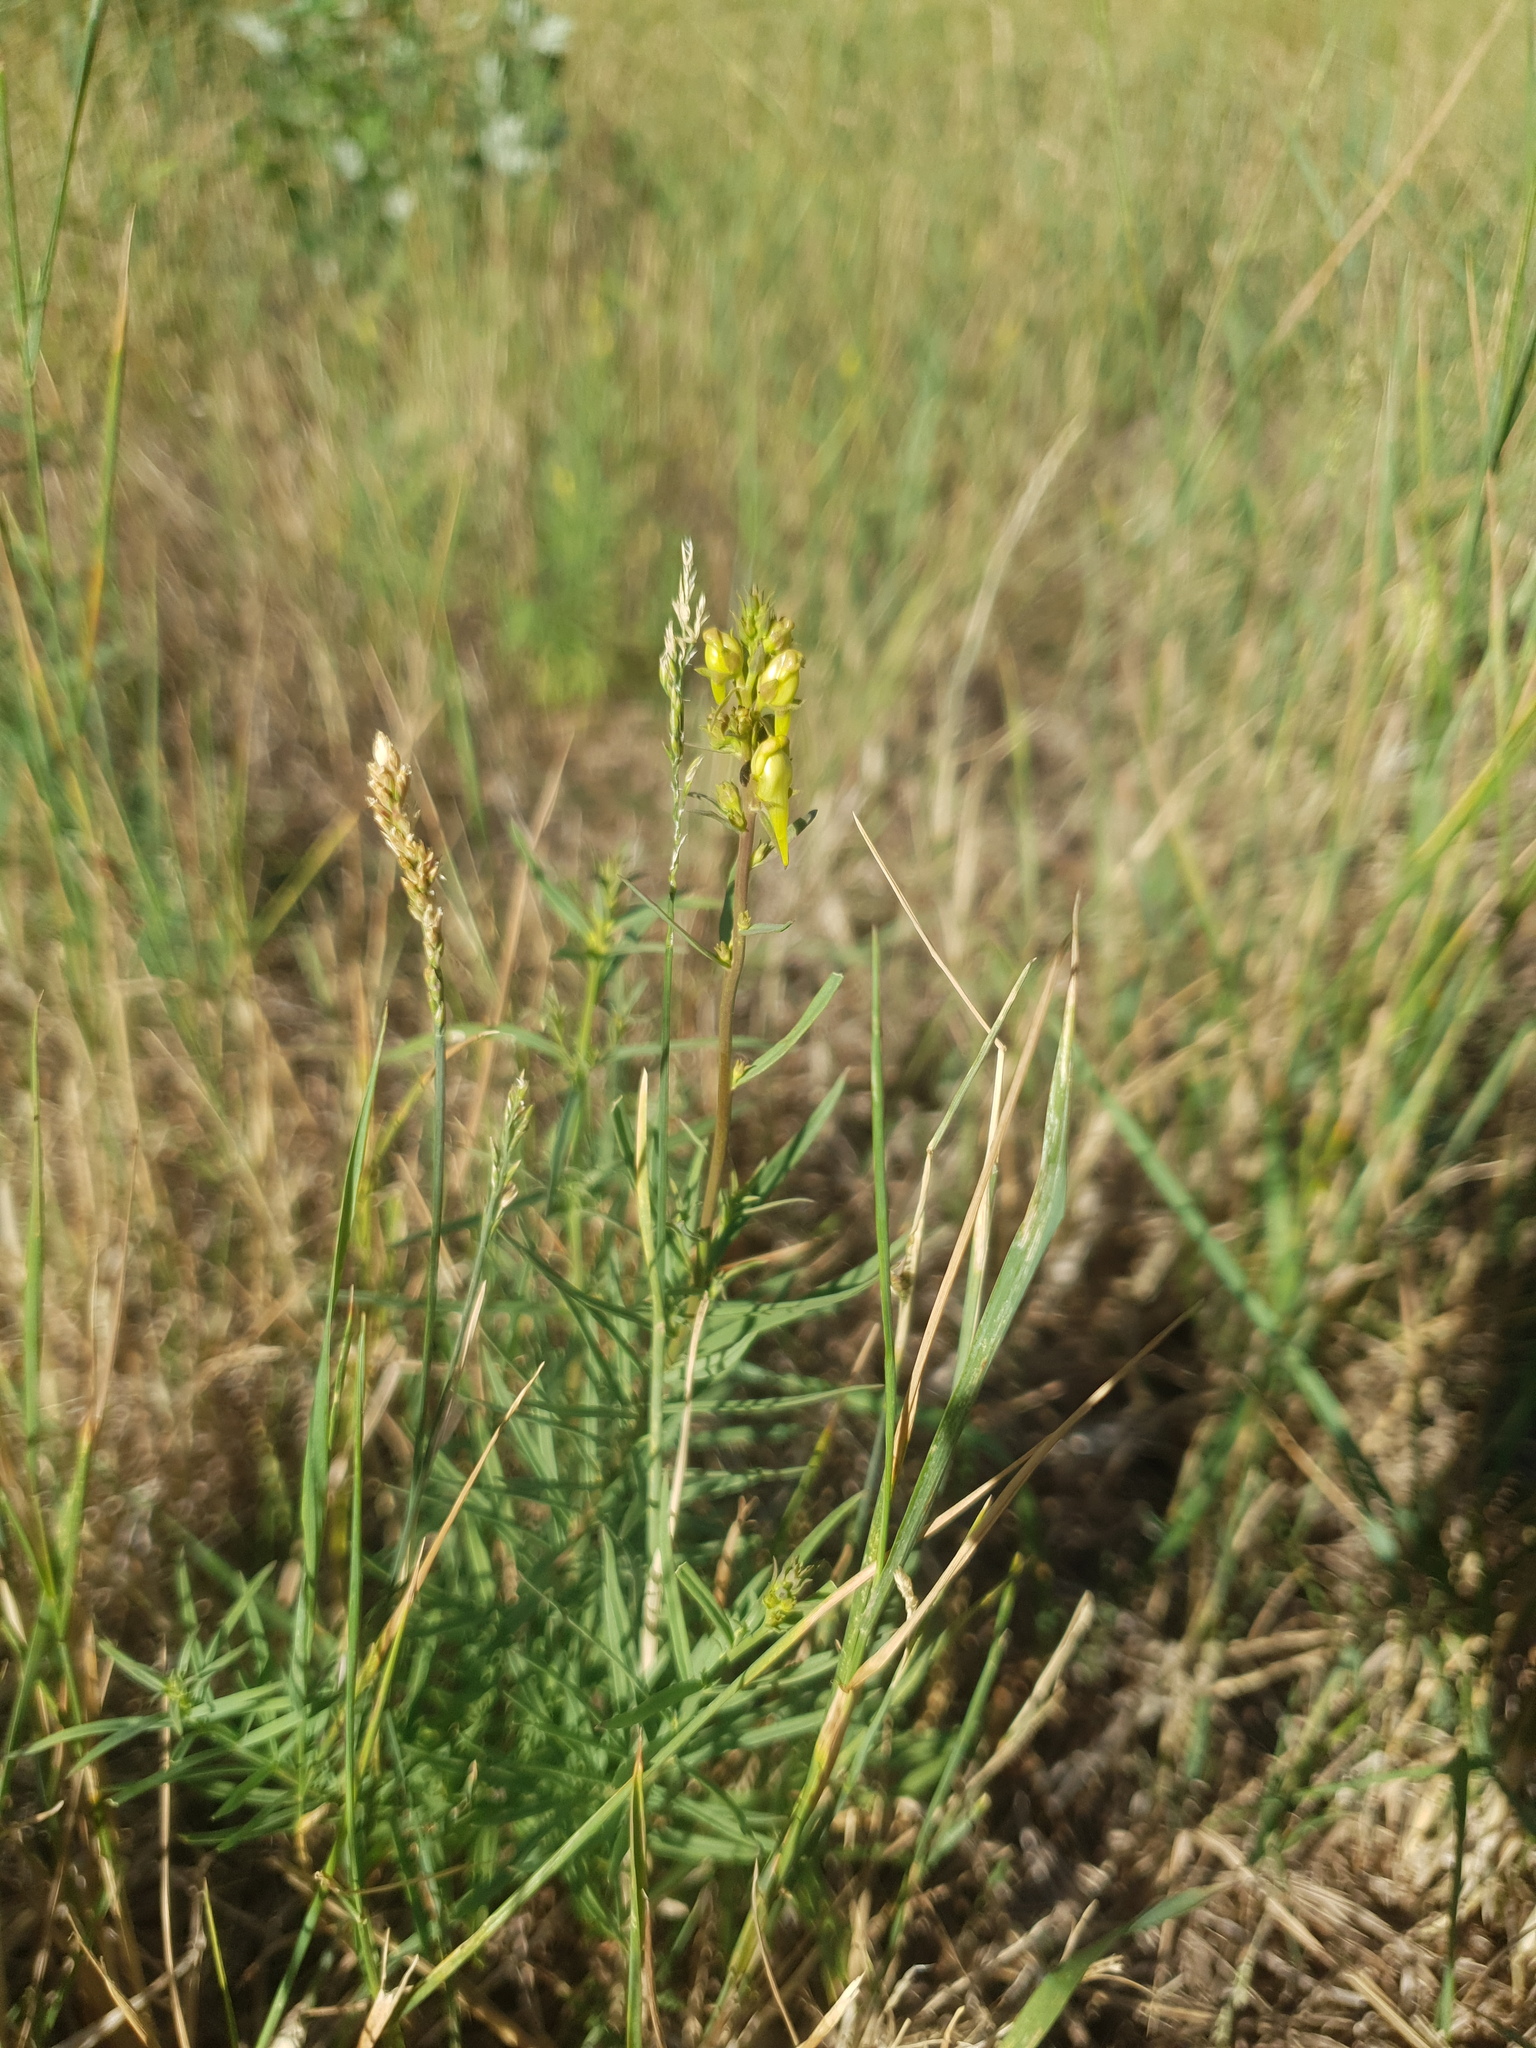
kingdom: Plantae
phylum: Tracheophyta
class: Magnoliopsida
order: Lamiales
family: Plantaginaceae
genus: Linaria
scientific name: Linaria vulgaris
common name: Butter and eggs
